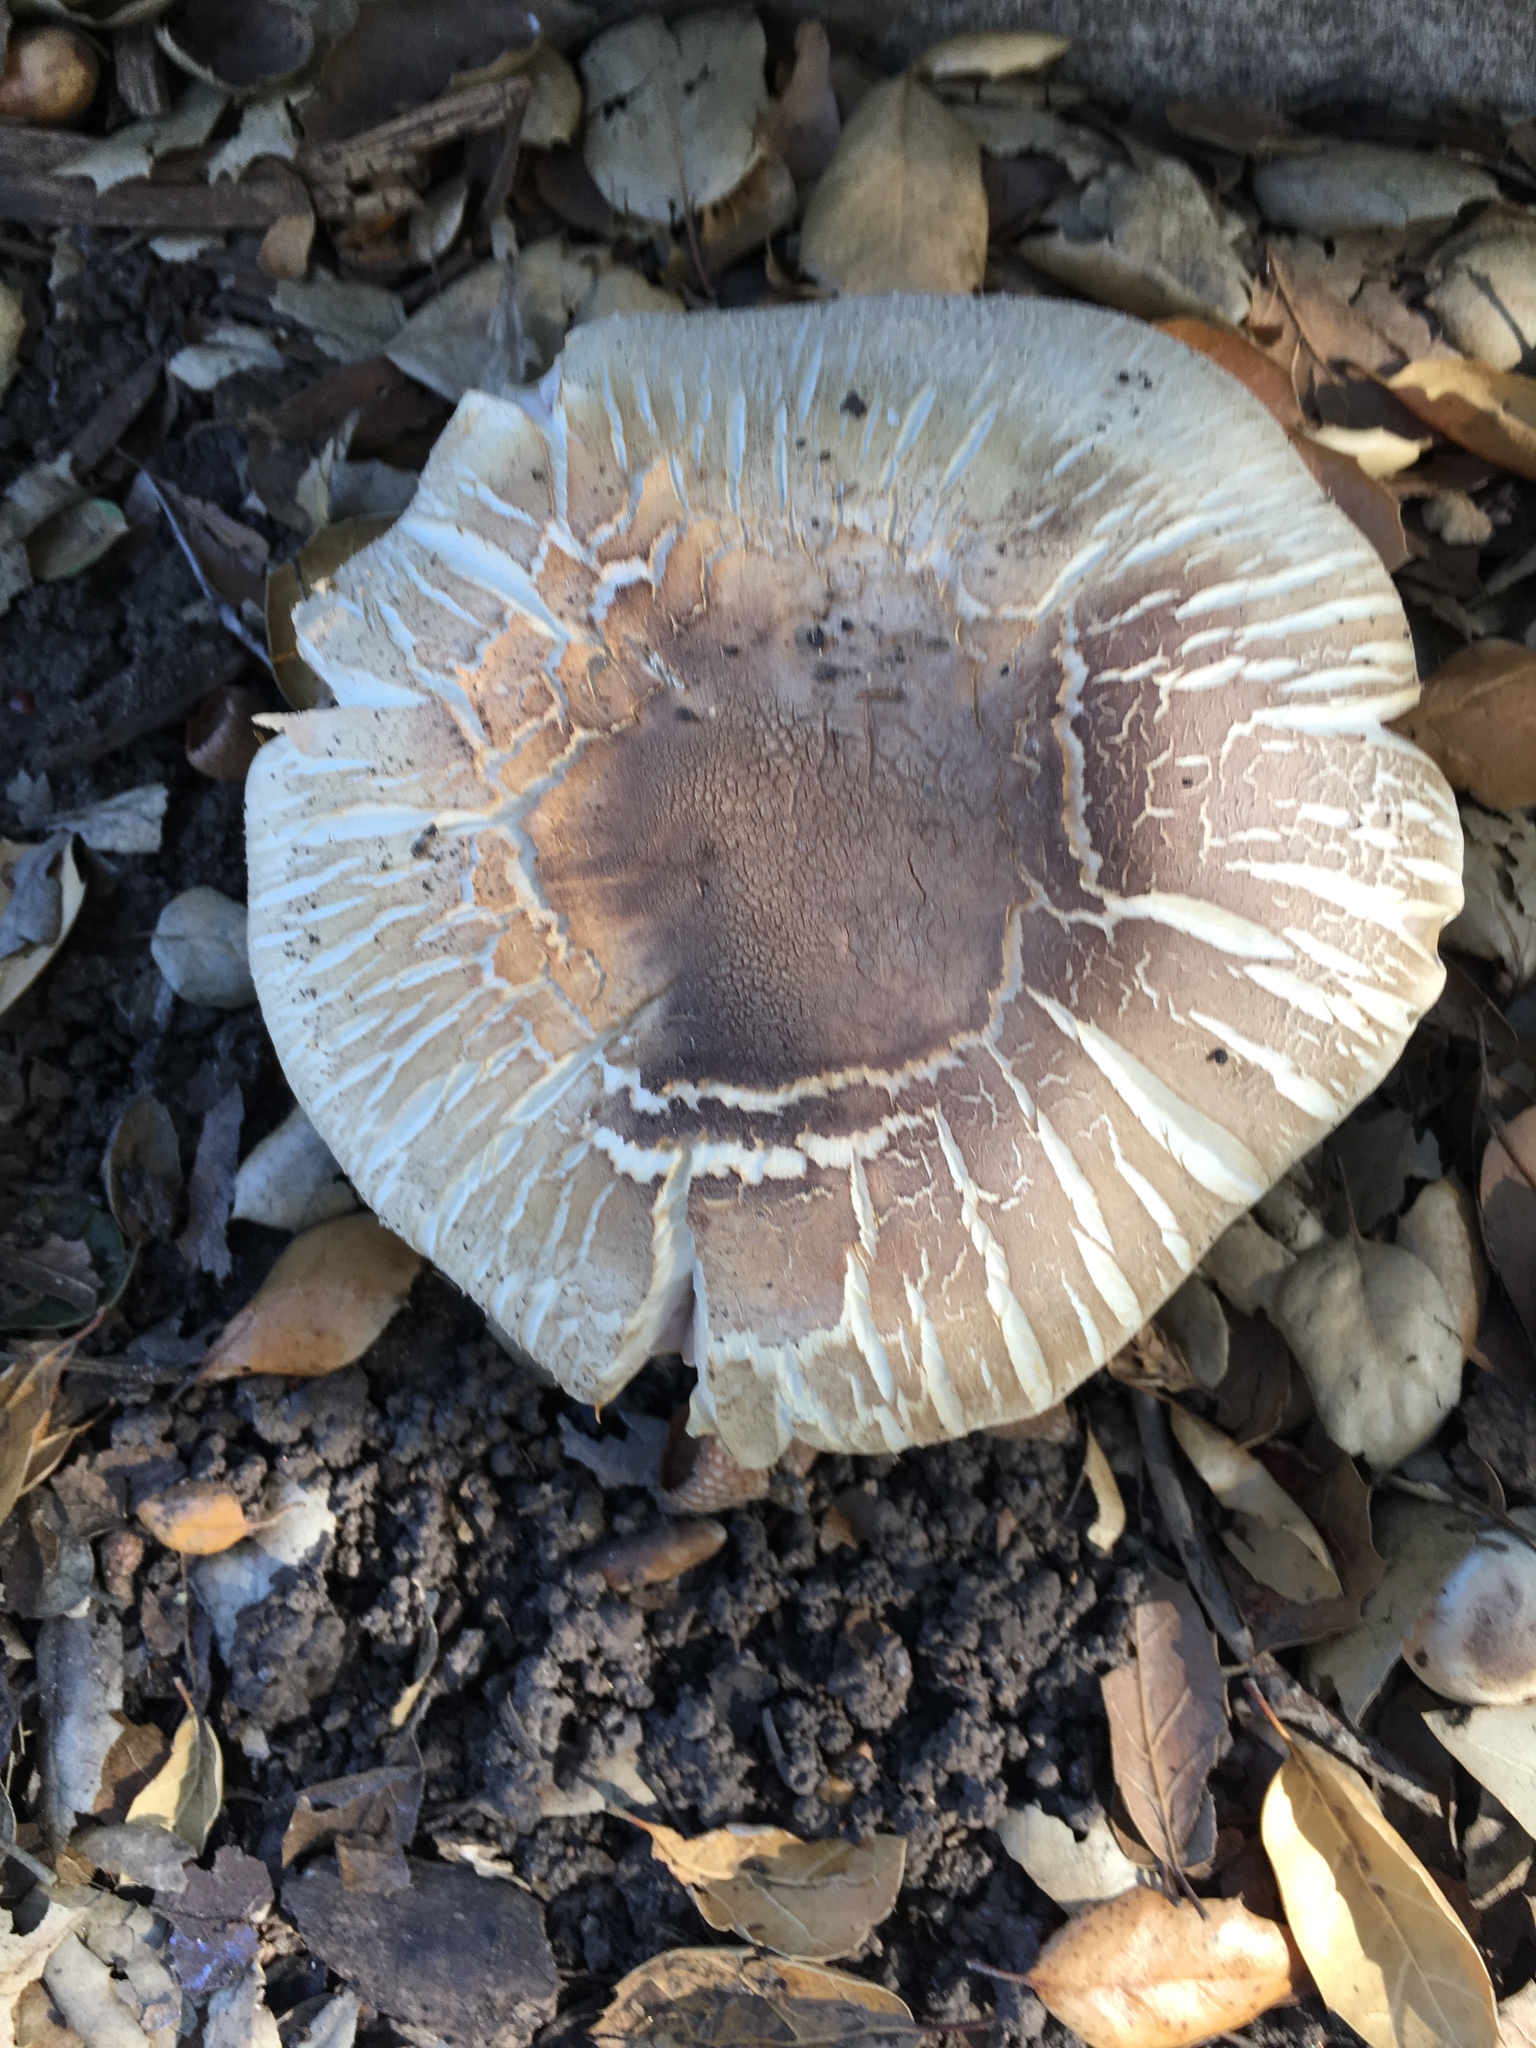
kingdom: Fungi
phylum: Basidiomycota
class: Agaricomycetes
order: Agaricales
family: Agaricaceae
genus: Agaricus
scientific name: Agaricus xanthodermus
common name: Yellow stainer
